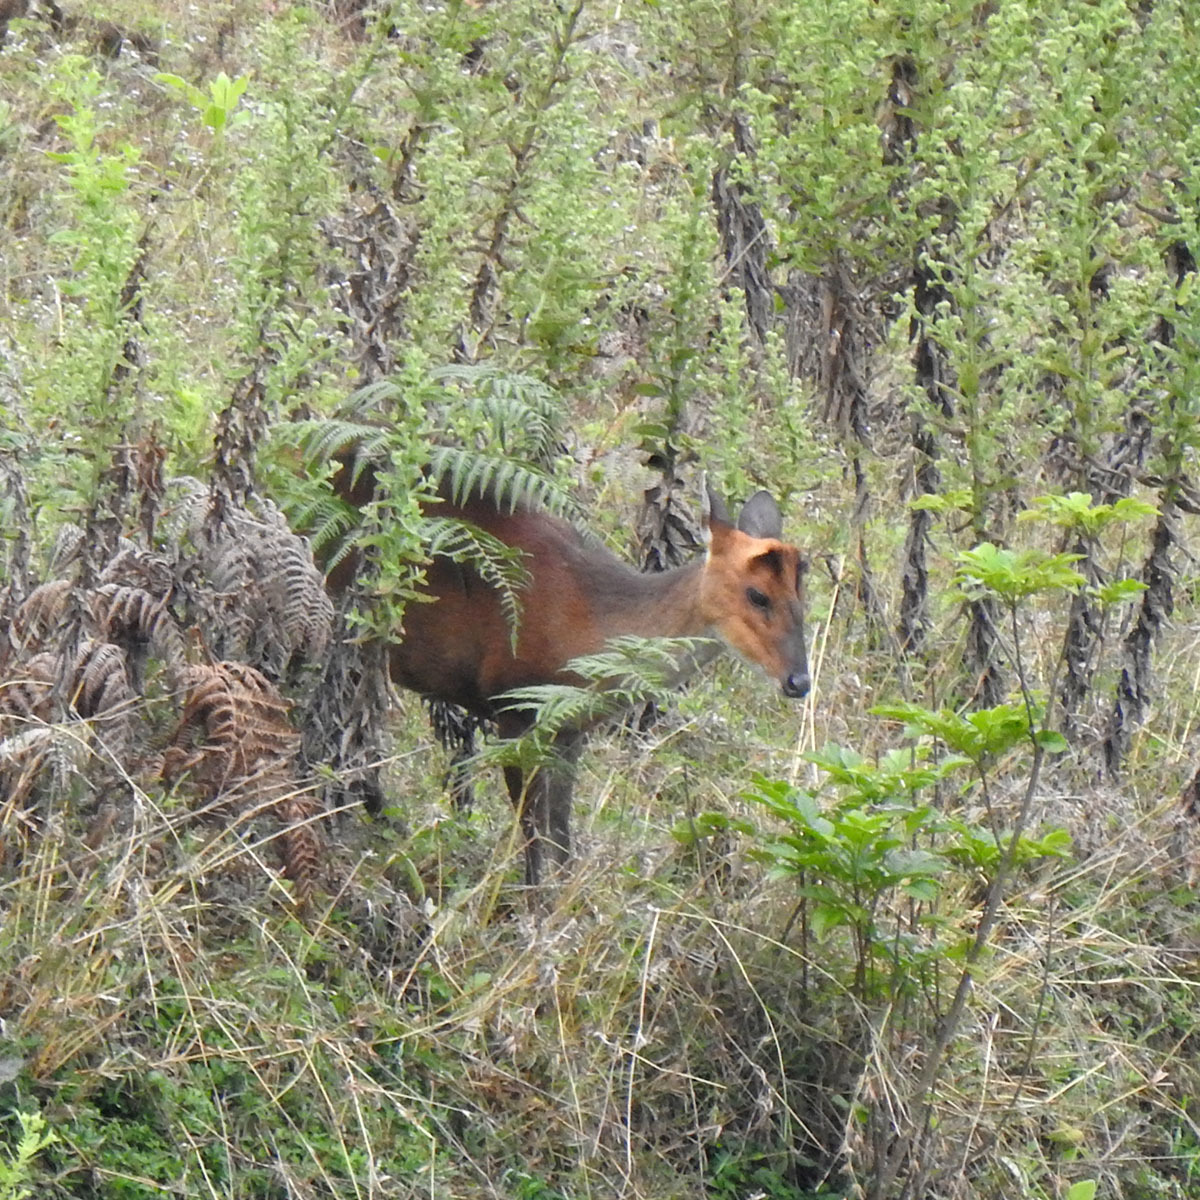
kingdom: Animalia
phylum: Chordata
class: Mammalia
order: Artiodactyla
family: Cervidae
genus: Muntiacus
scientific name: Muntiacus muntjak
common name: Indian muntjac
